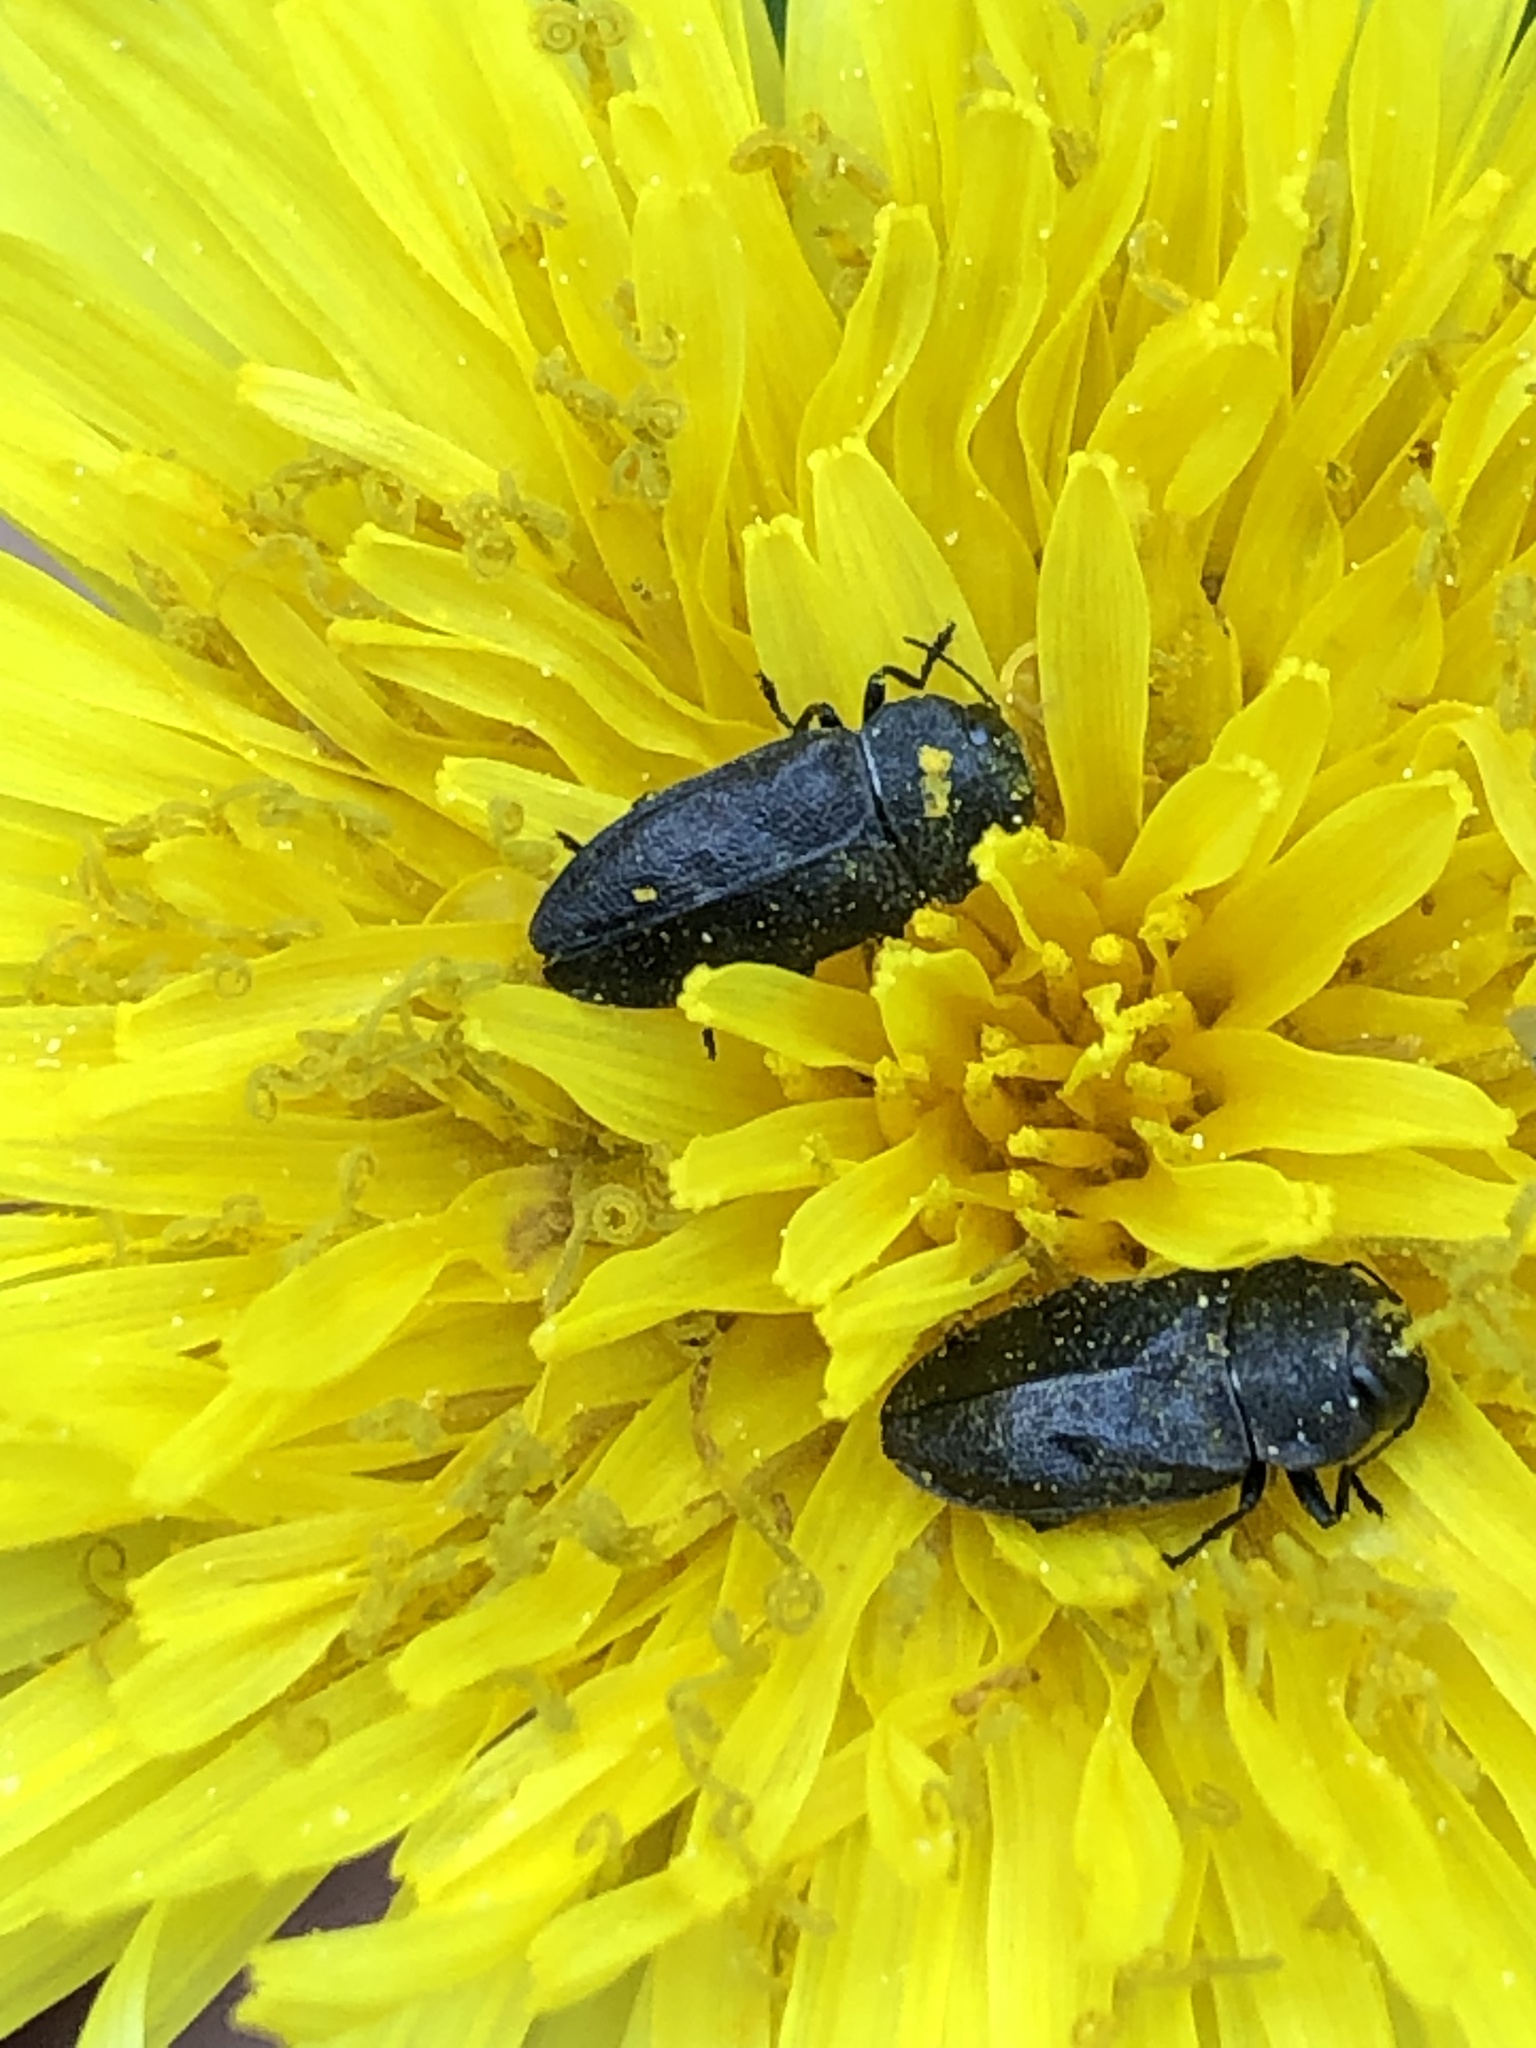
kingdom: Animalia
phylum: Arthropoda
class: Insecta
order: Coleoptera
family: Buprestidae
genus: Anthaxia
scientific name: Anthaxia helvetica
